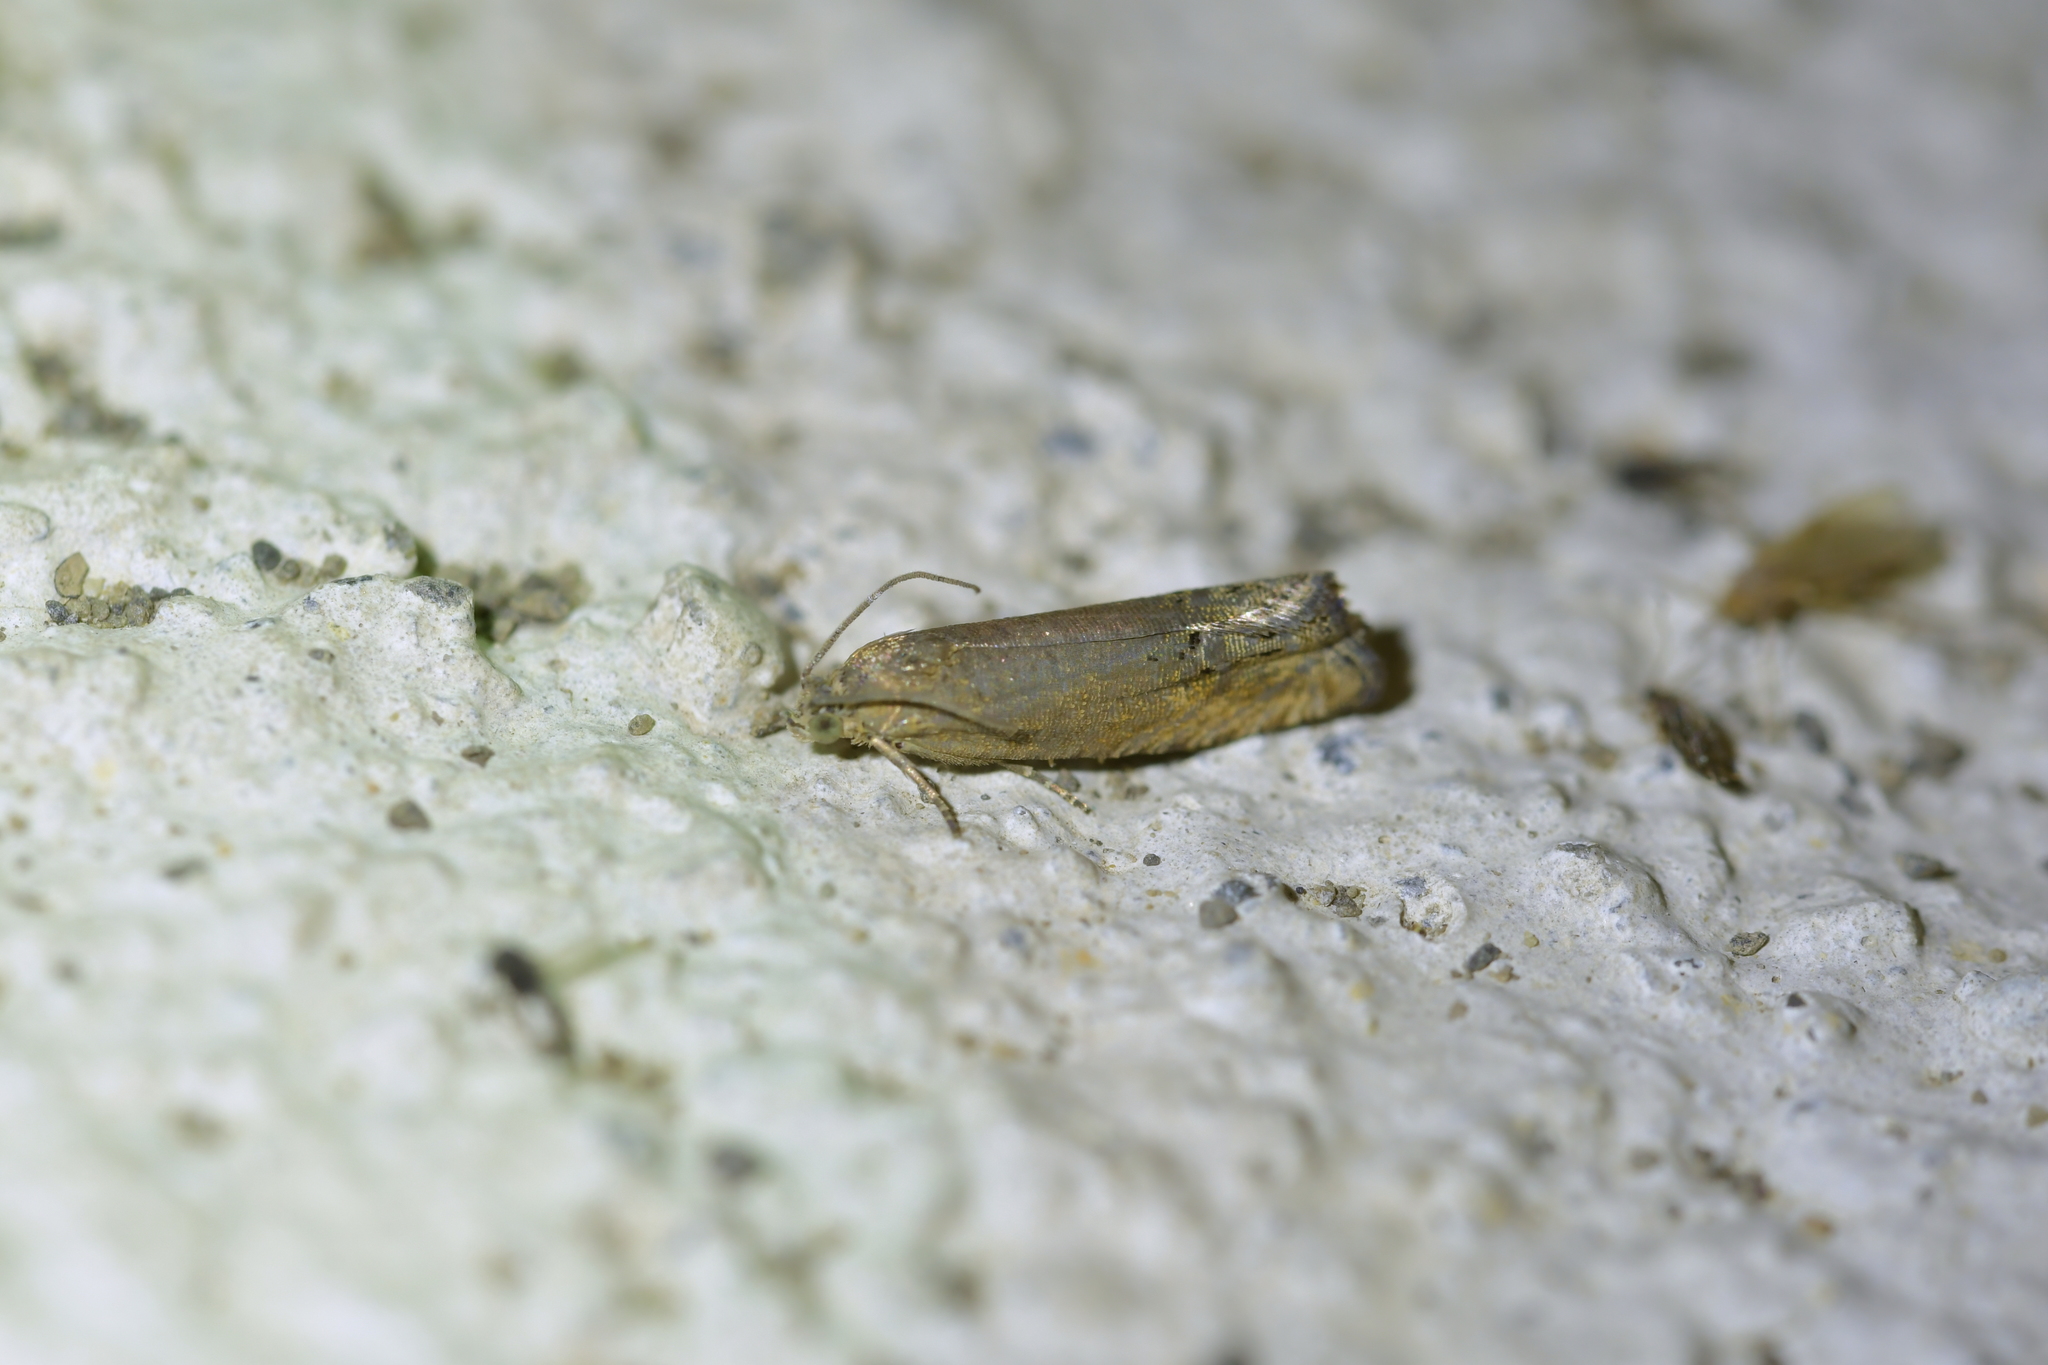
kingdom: Animalia
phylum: Arthropoda
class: Insecta
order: Lepidoptera
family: Tortricidae
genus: Cydia
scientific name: Cydia succedana
